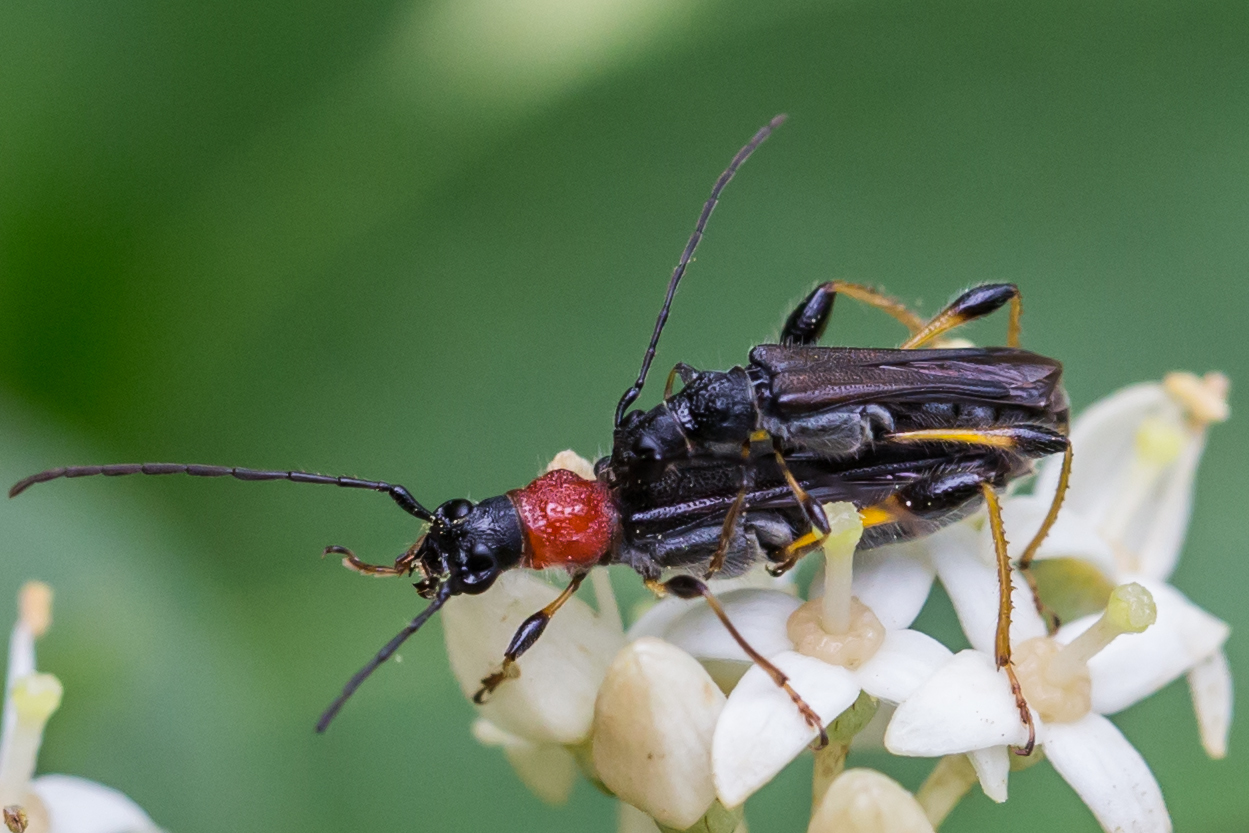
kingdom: Animalia
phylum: Arthropoda
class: Insecta
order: Coleoptera
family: Cerambycidae
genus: Callimoxys
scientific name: Callimoxys sanguinicollis
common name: Blood-necked longhorn beetle
